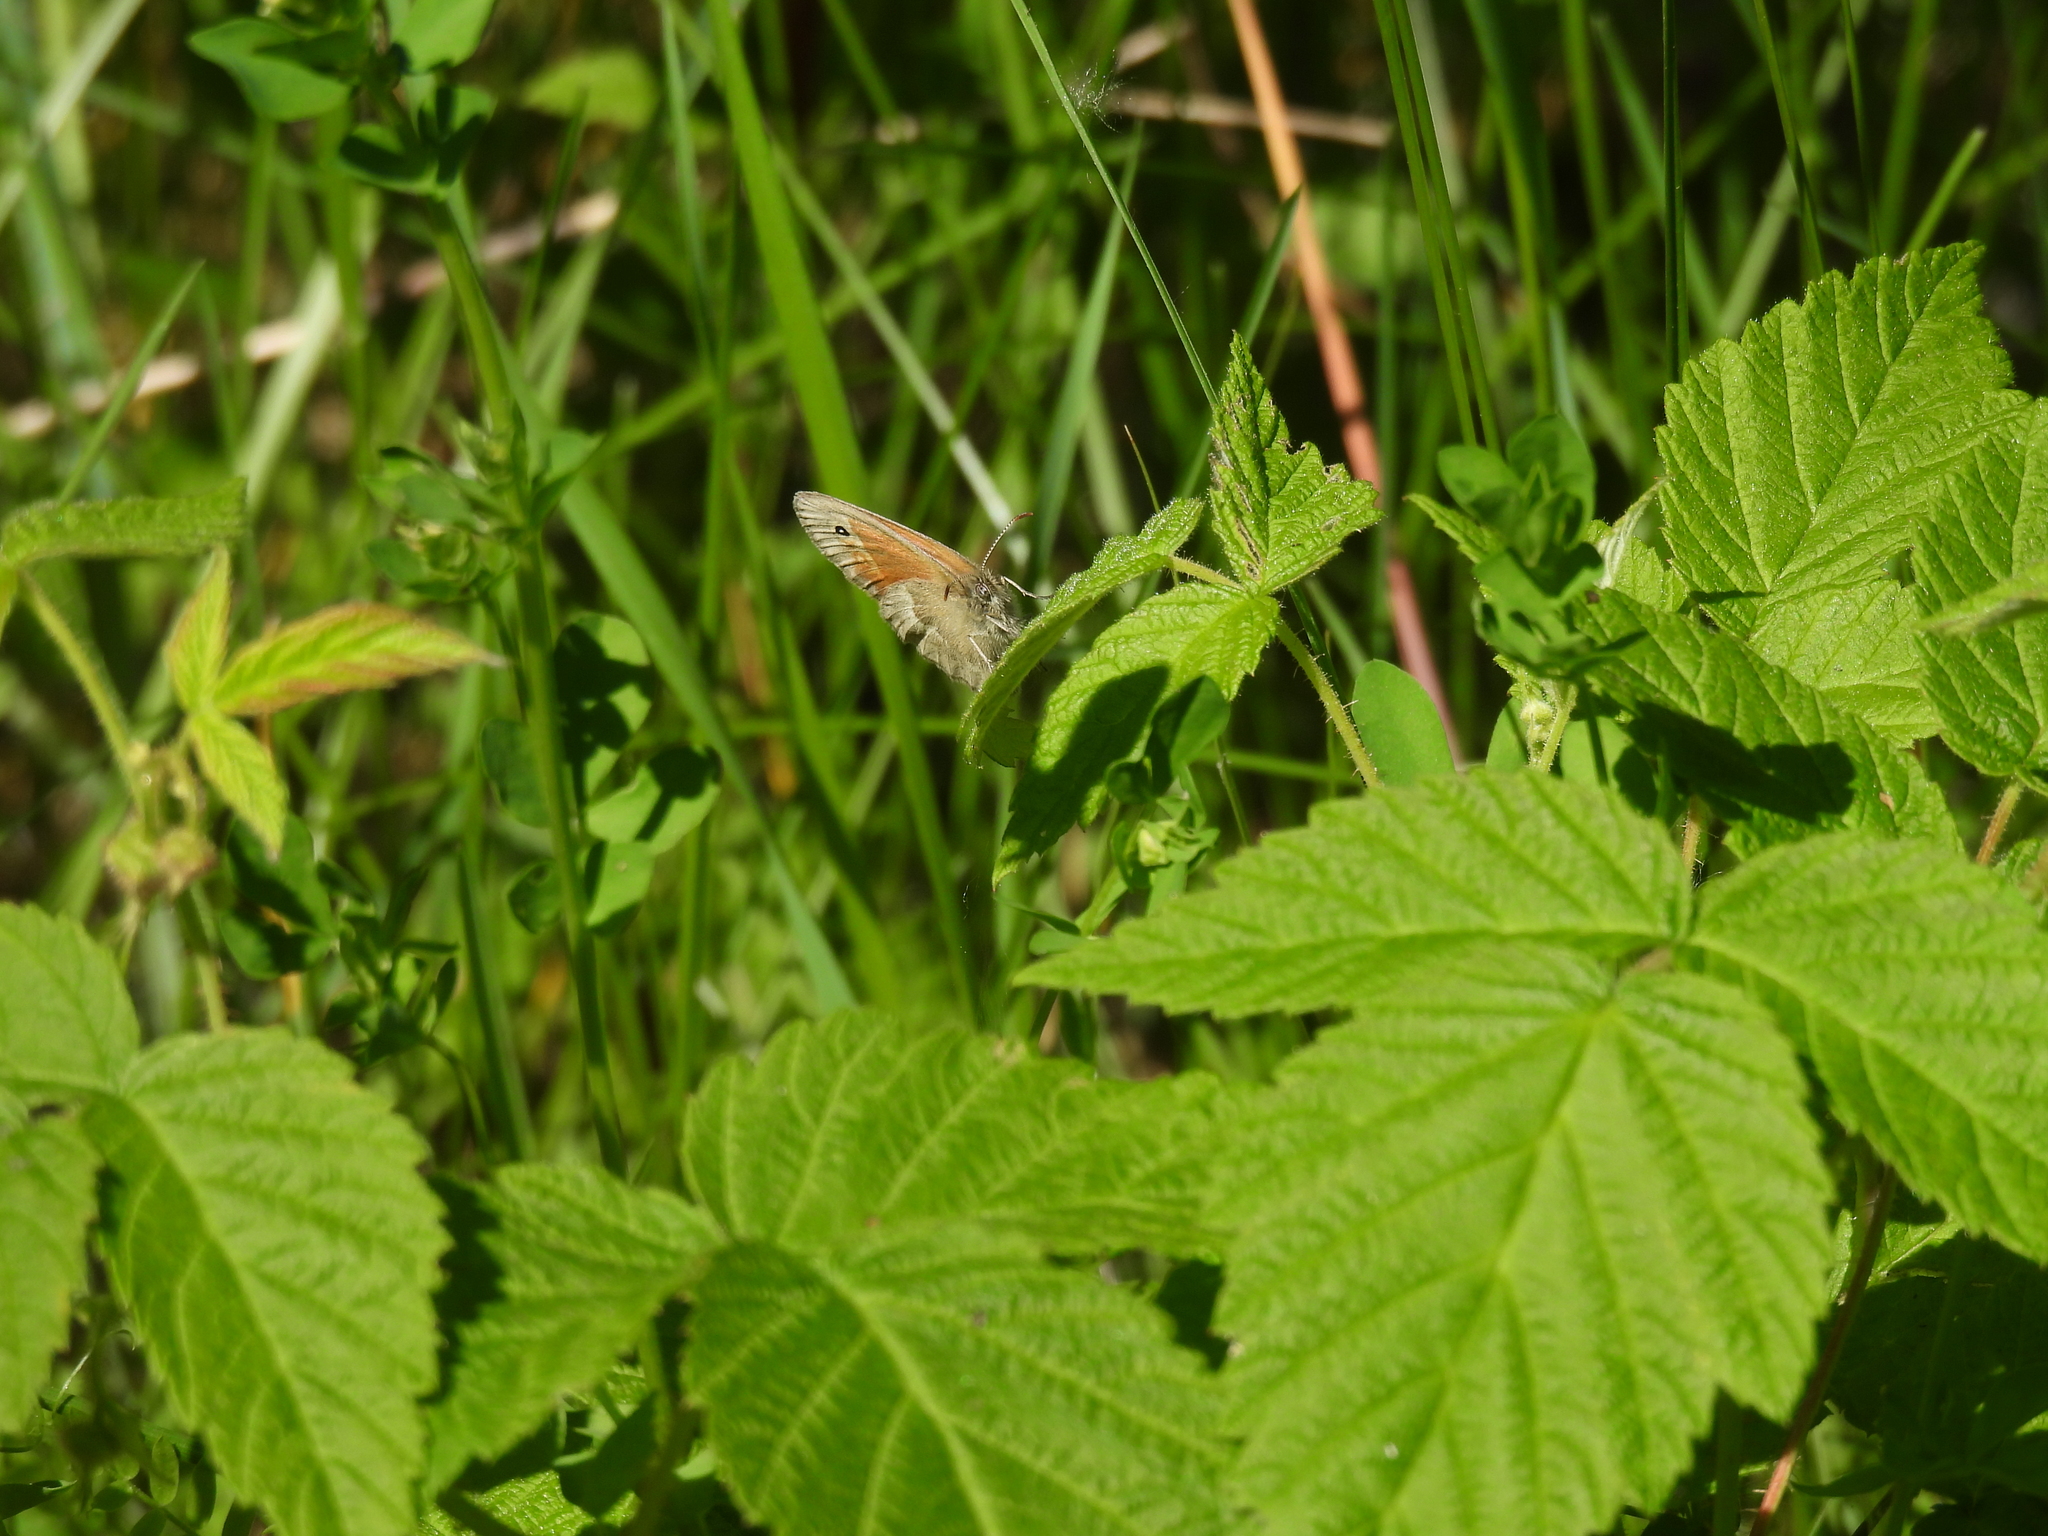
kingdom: Animalia
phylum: Arthropoda
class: Insecta
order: Lepidoptera
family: Nymphalidae
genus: Coenonympha
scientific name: Coenonympha california
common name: Common ringlet
